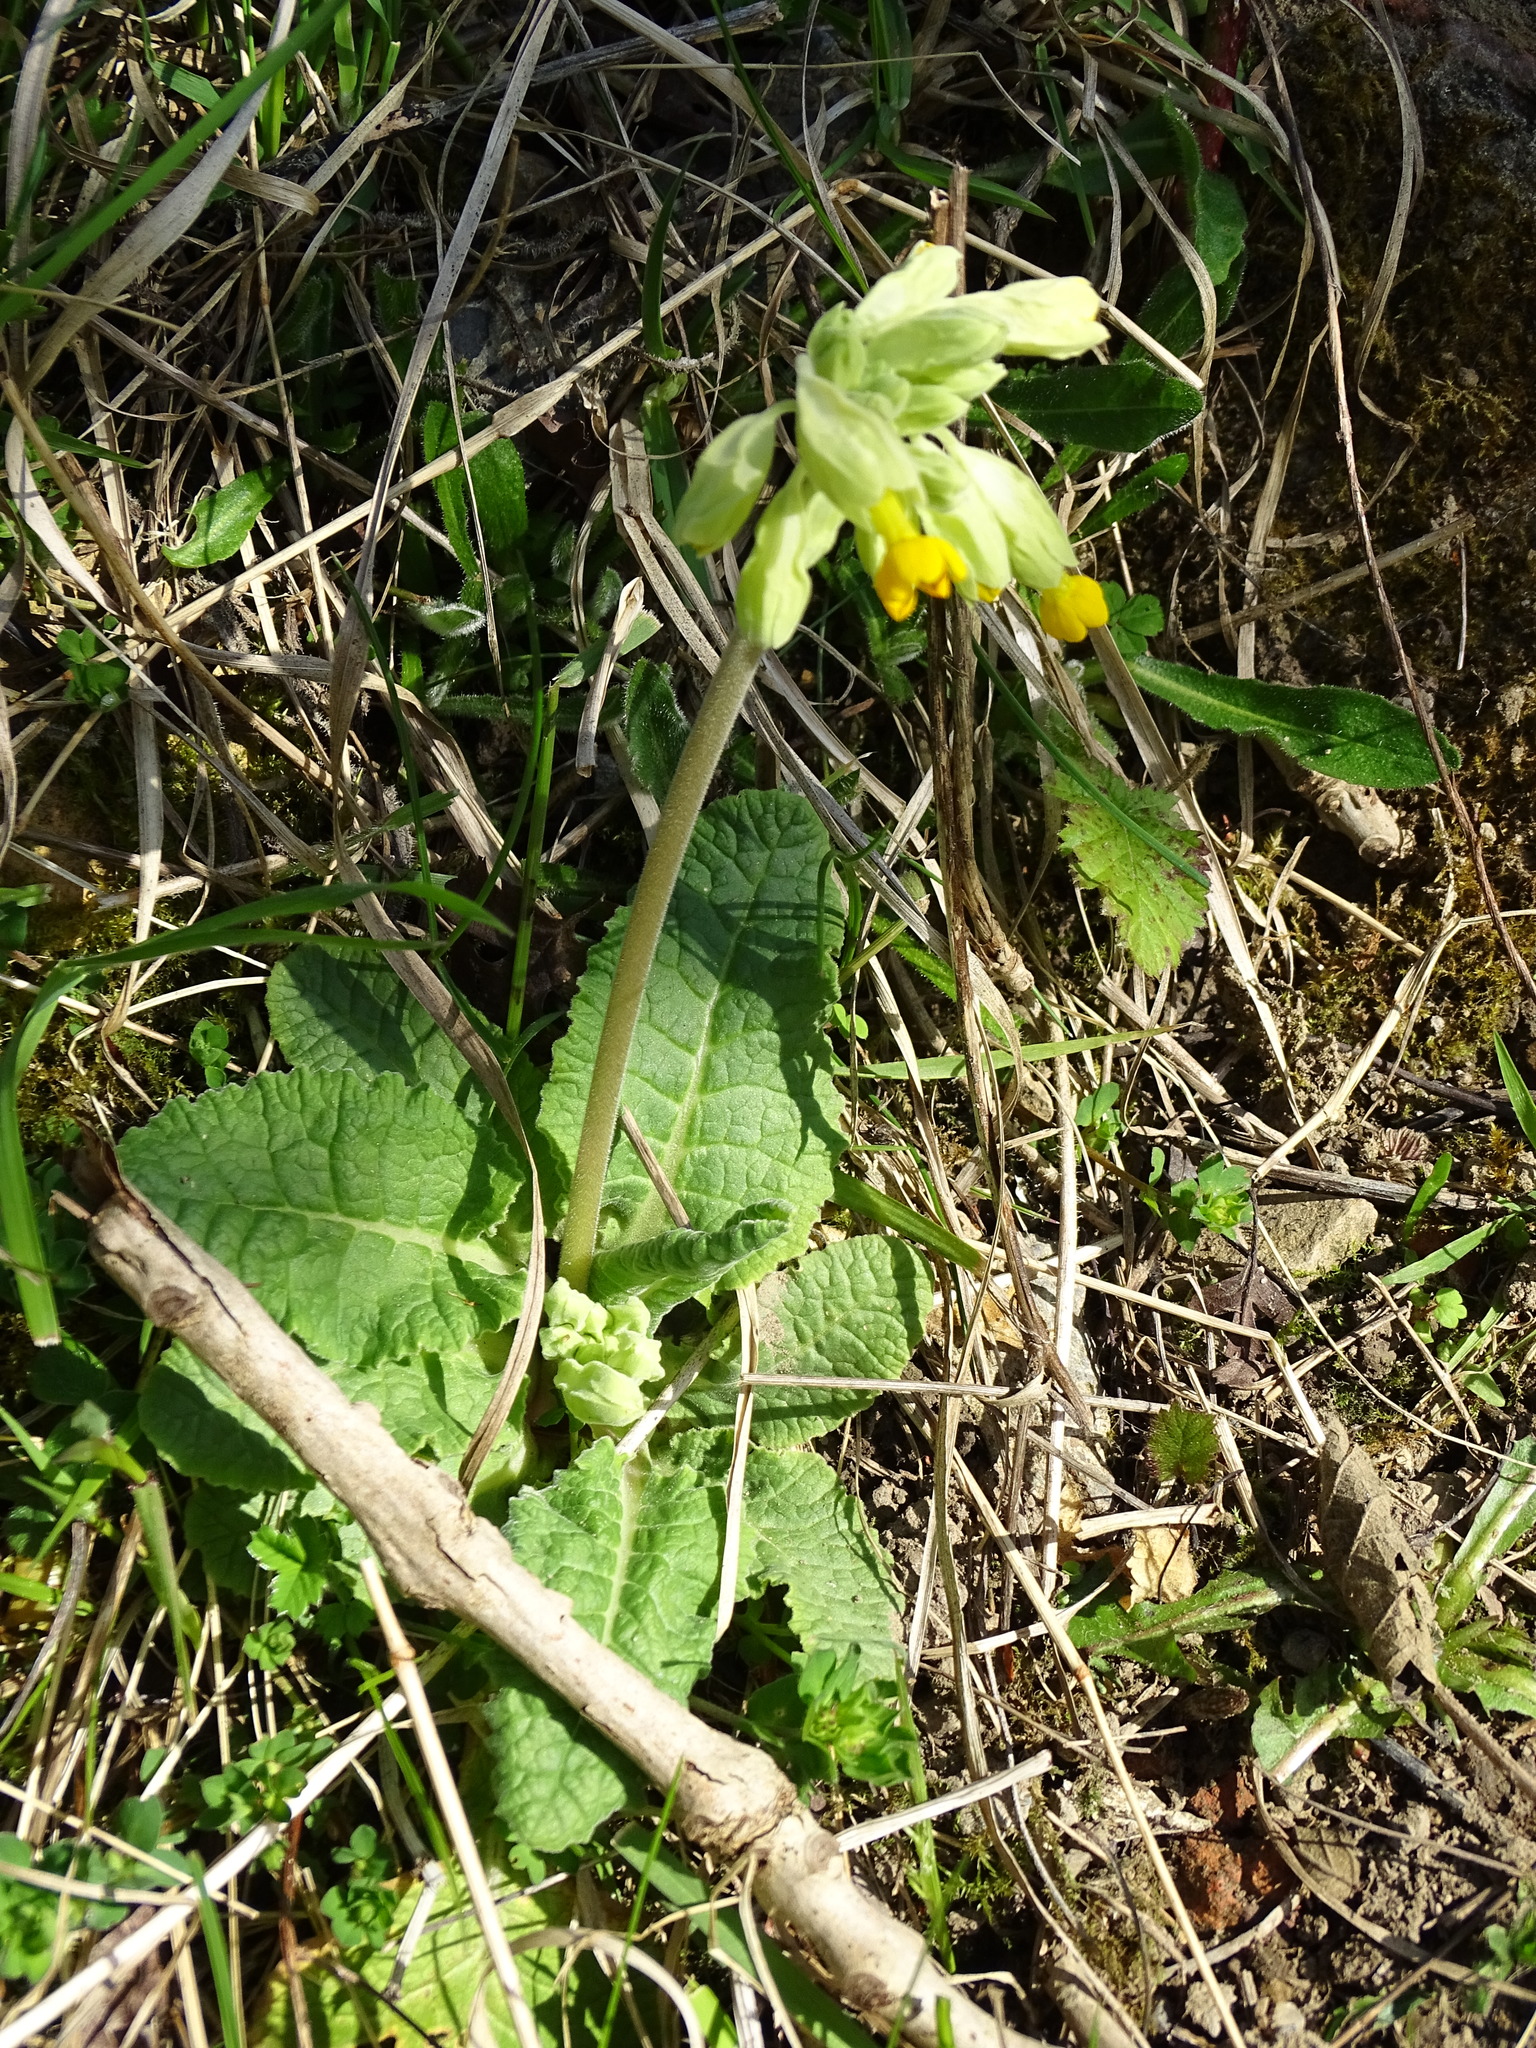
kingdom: Plantae
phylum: Tracheophyta
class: Magnoliopsida
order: Ericales
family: Primulaceae
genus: Primula
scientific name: Primula veris
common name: Cowslip
